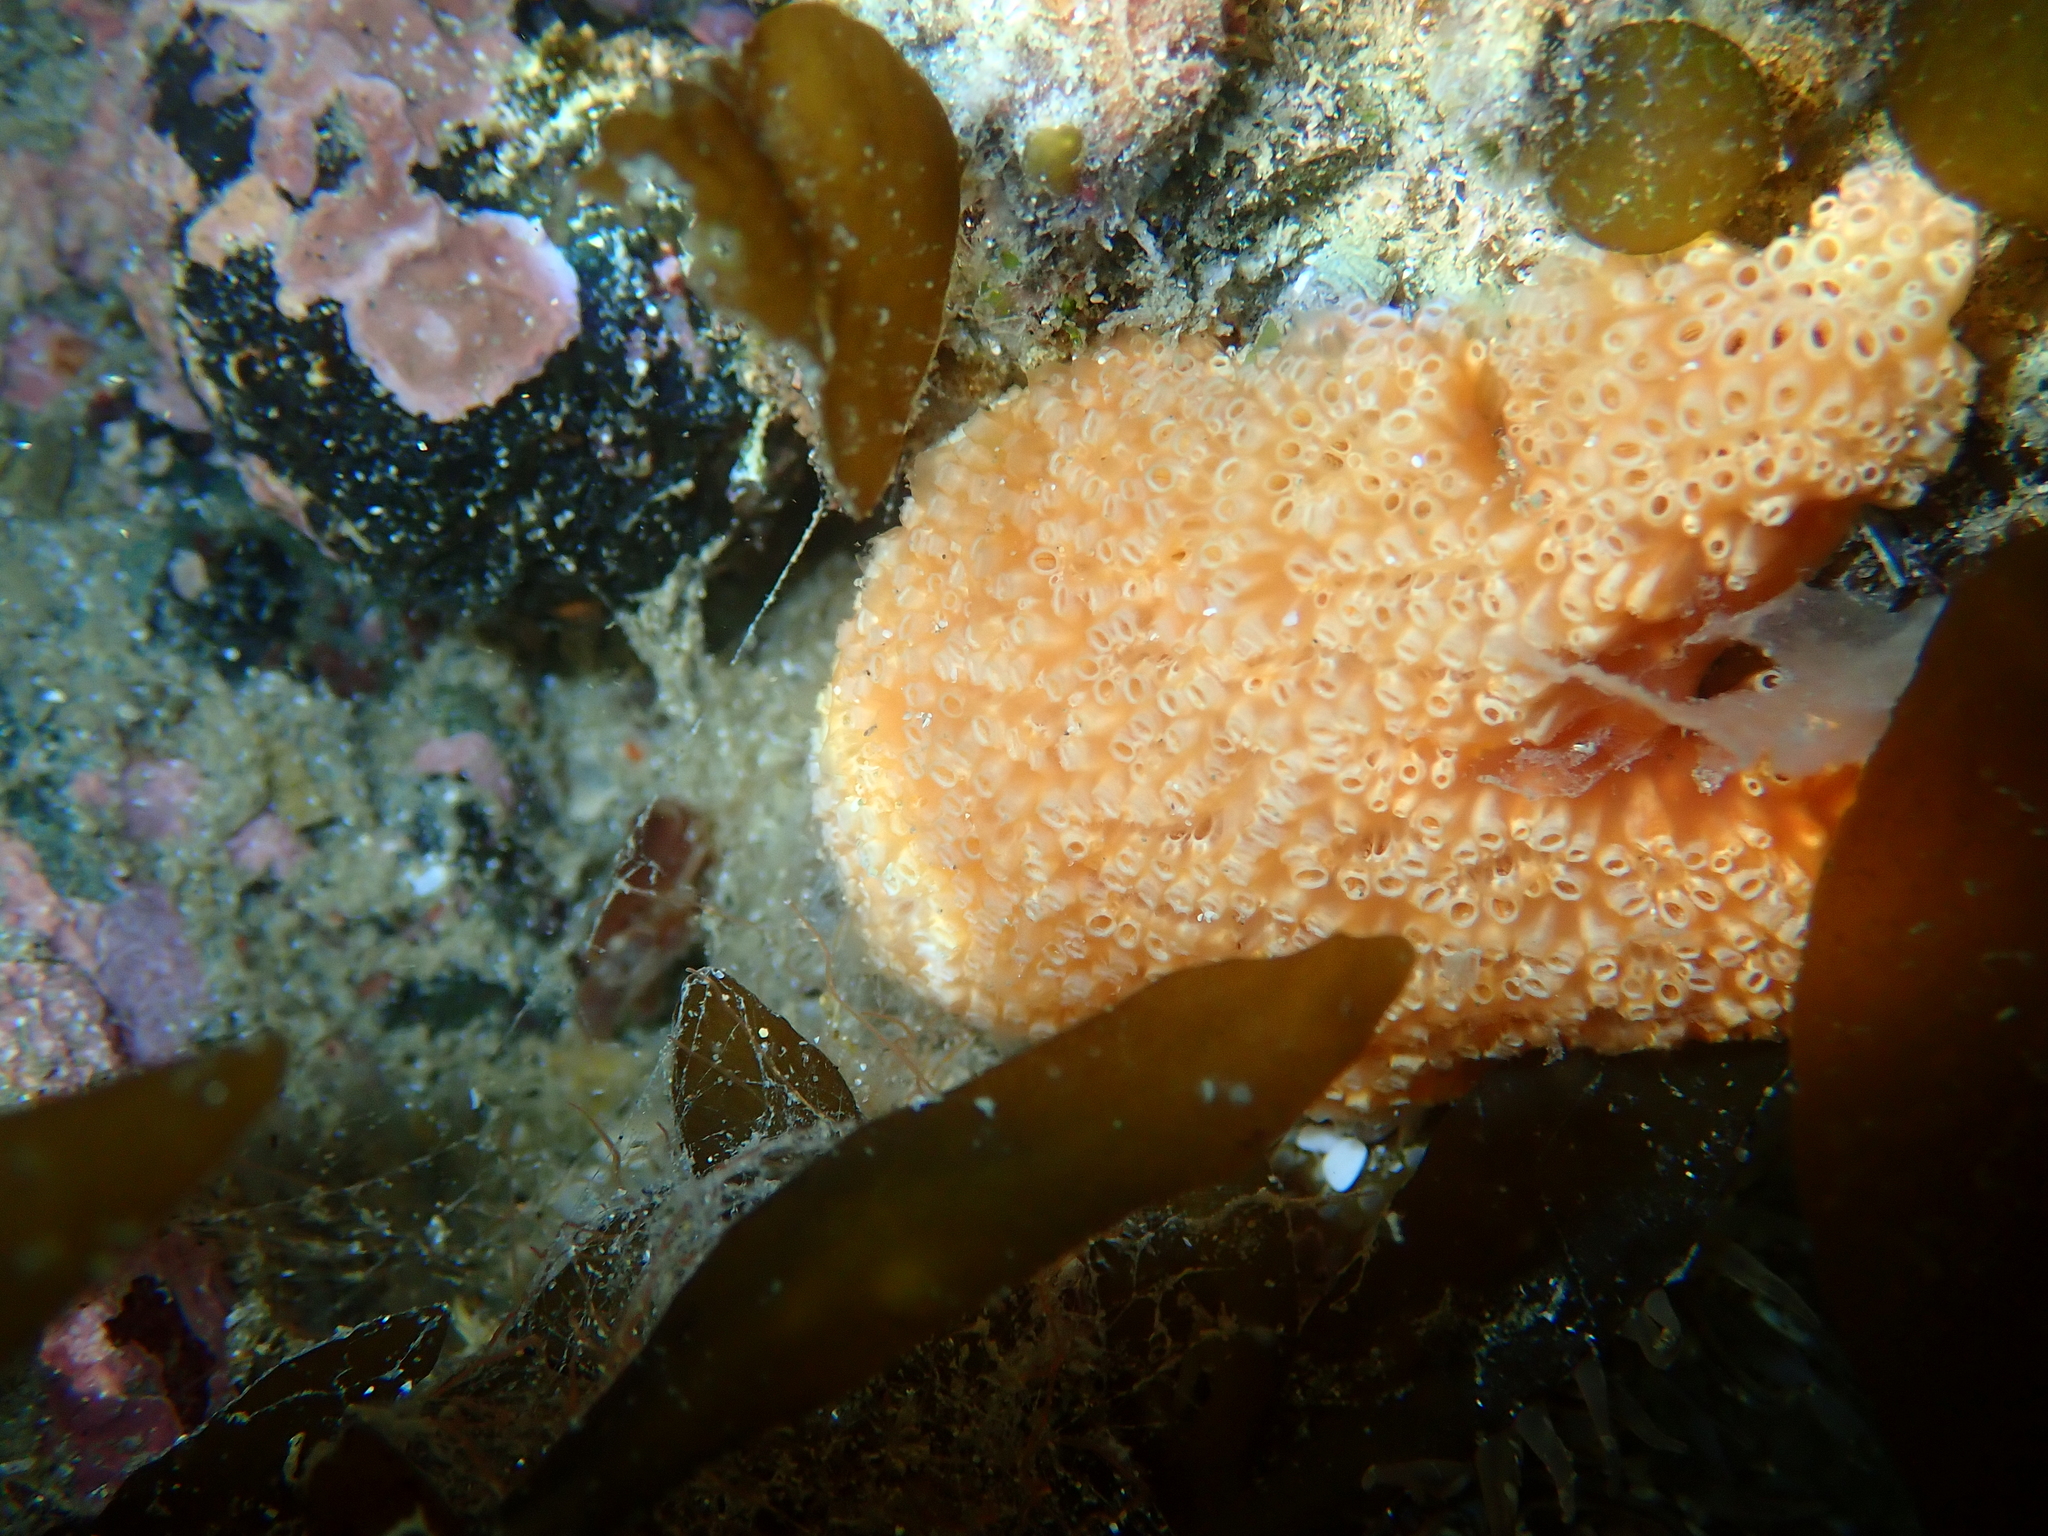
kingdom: Animalia
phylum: Chordata
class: Ascidiacea
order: Aplousobranchia
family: Polyclinidae
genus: Aplidium
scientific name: Aplidium benhami
